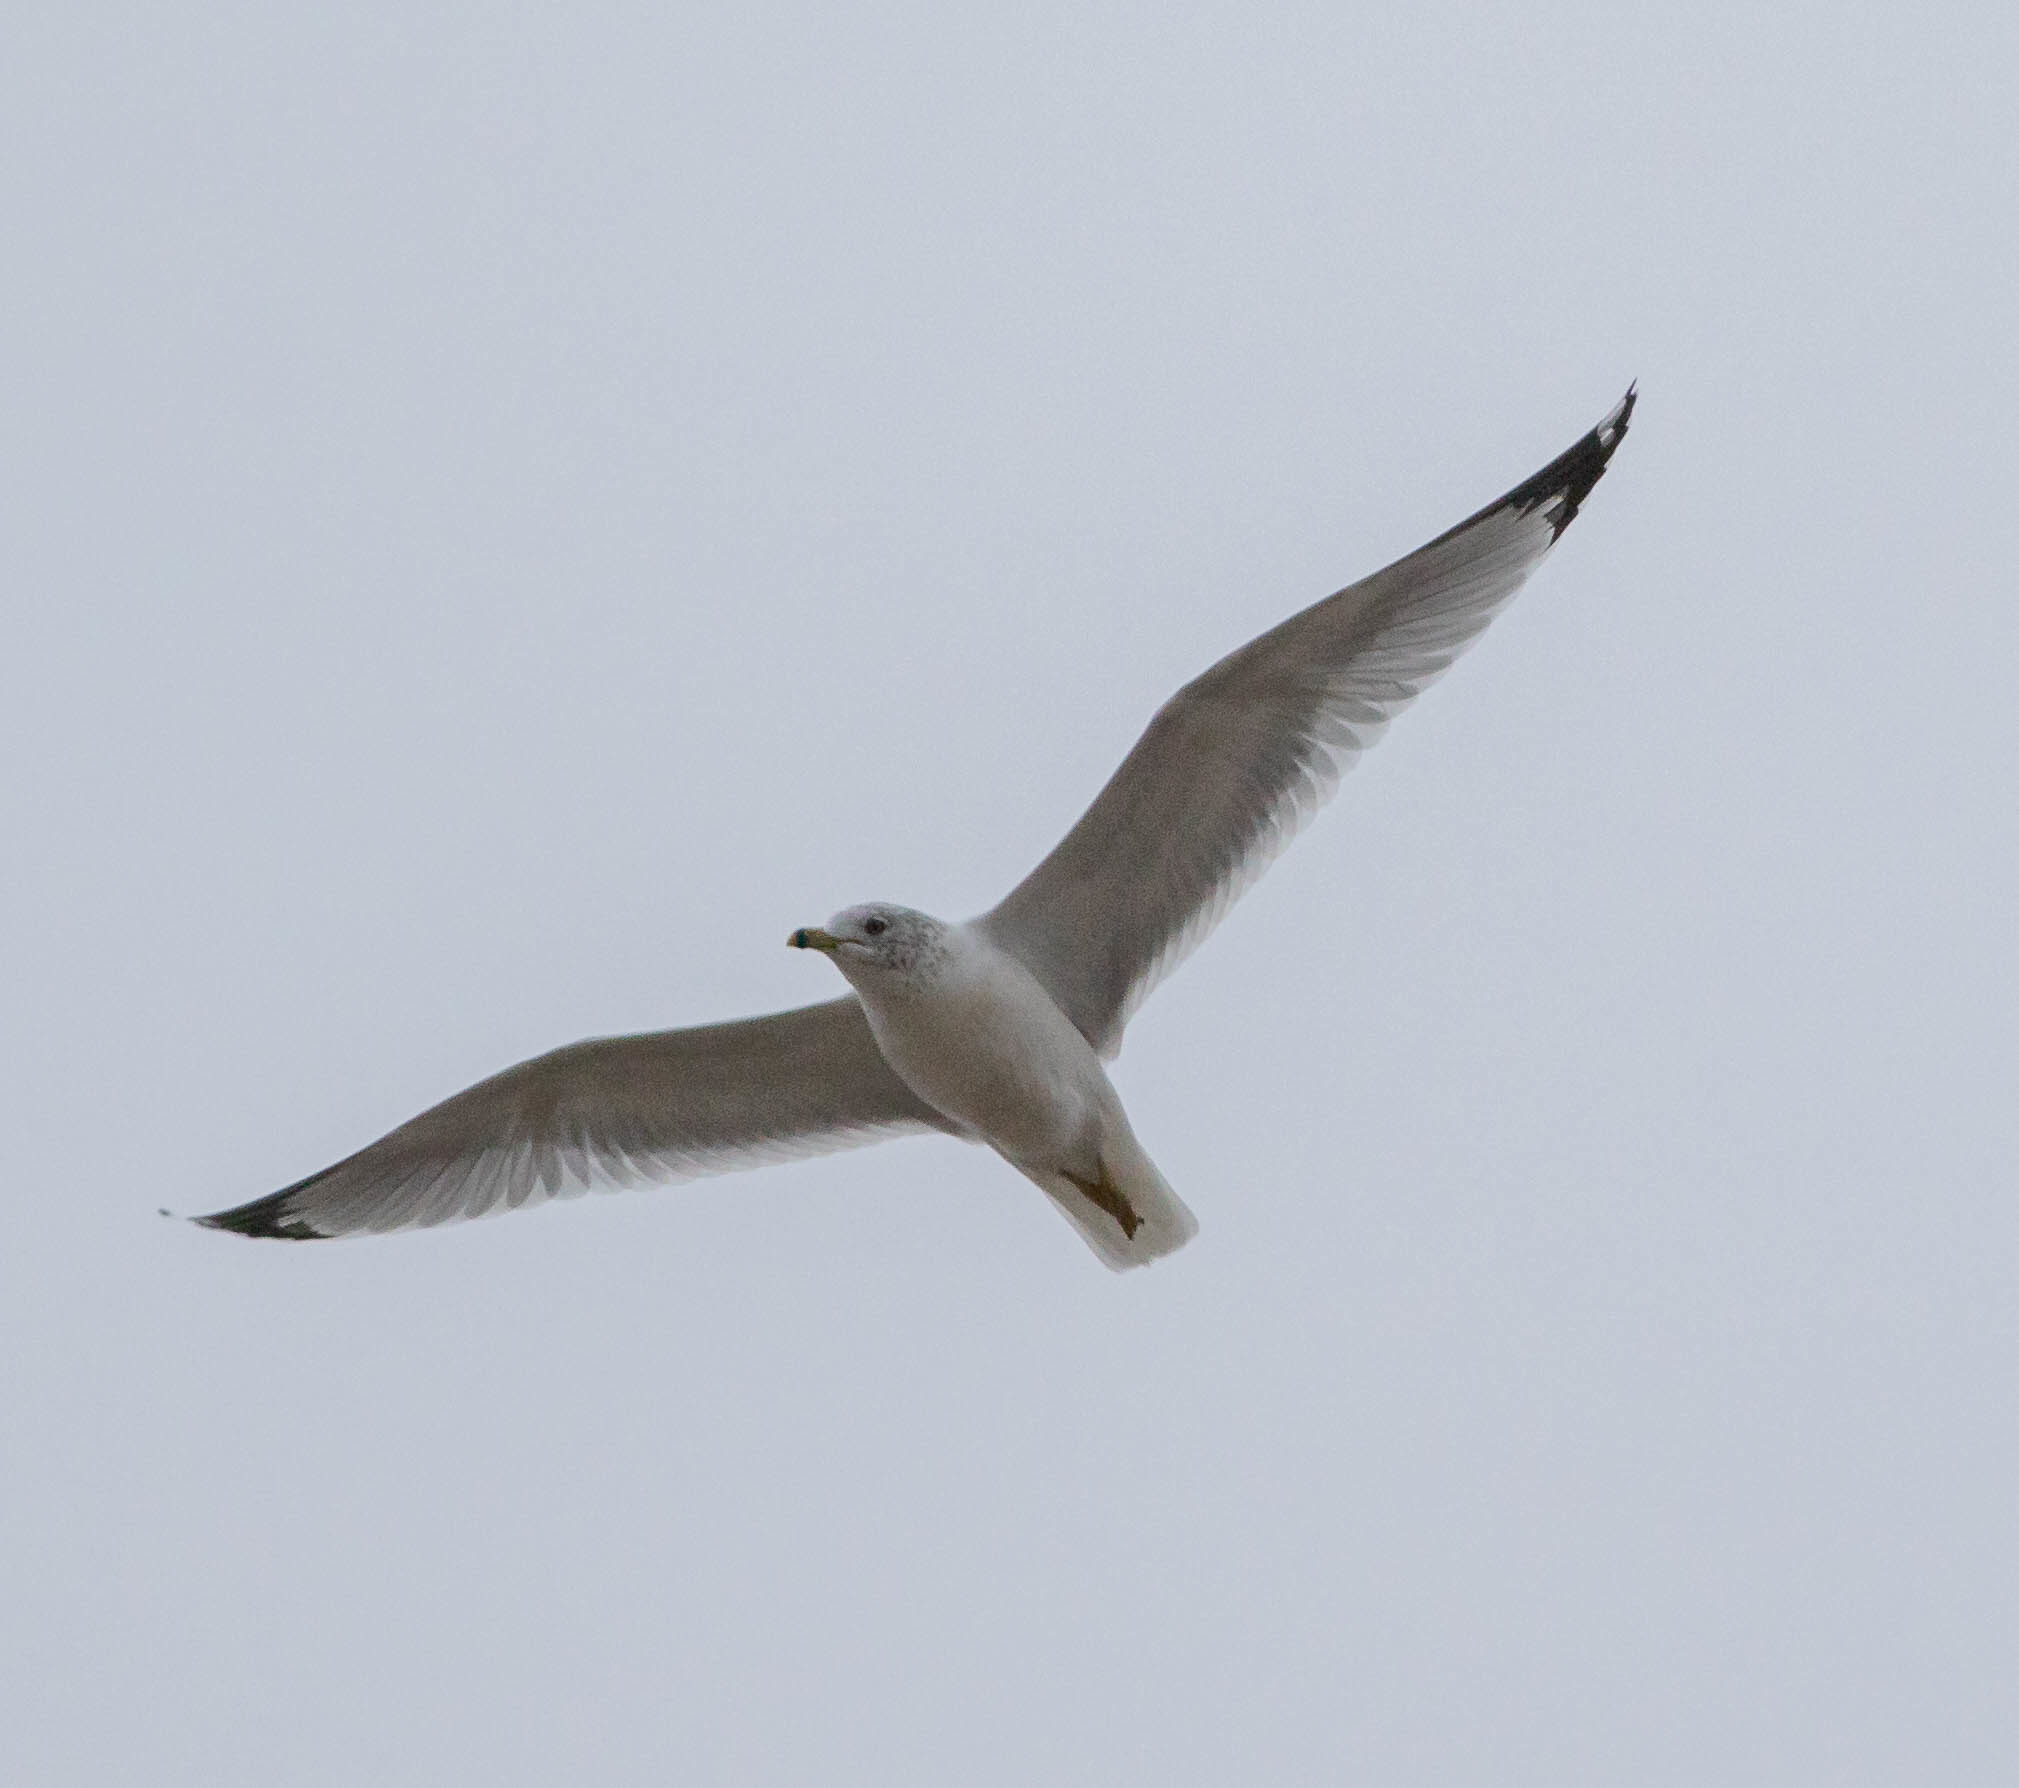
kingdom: Animalia
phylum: Chordata
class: Aves
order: Charadriiformes
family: Laridae
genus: Larus
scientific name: Larus delawarensis
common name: Ring-billed gull
